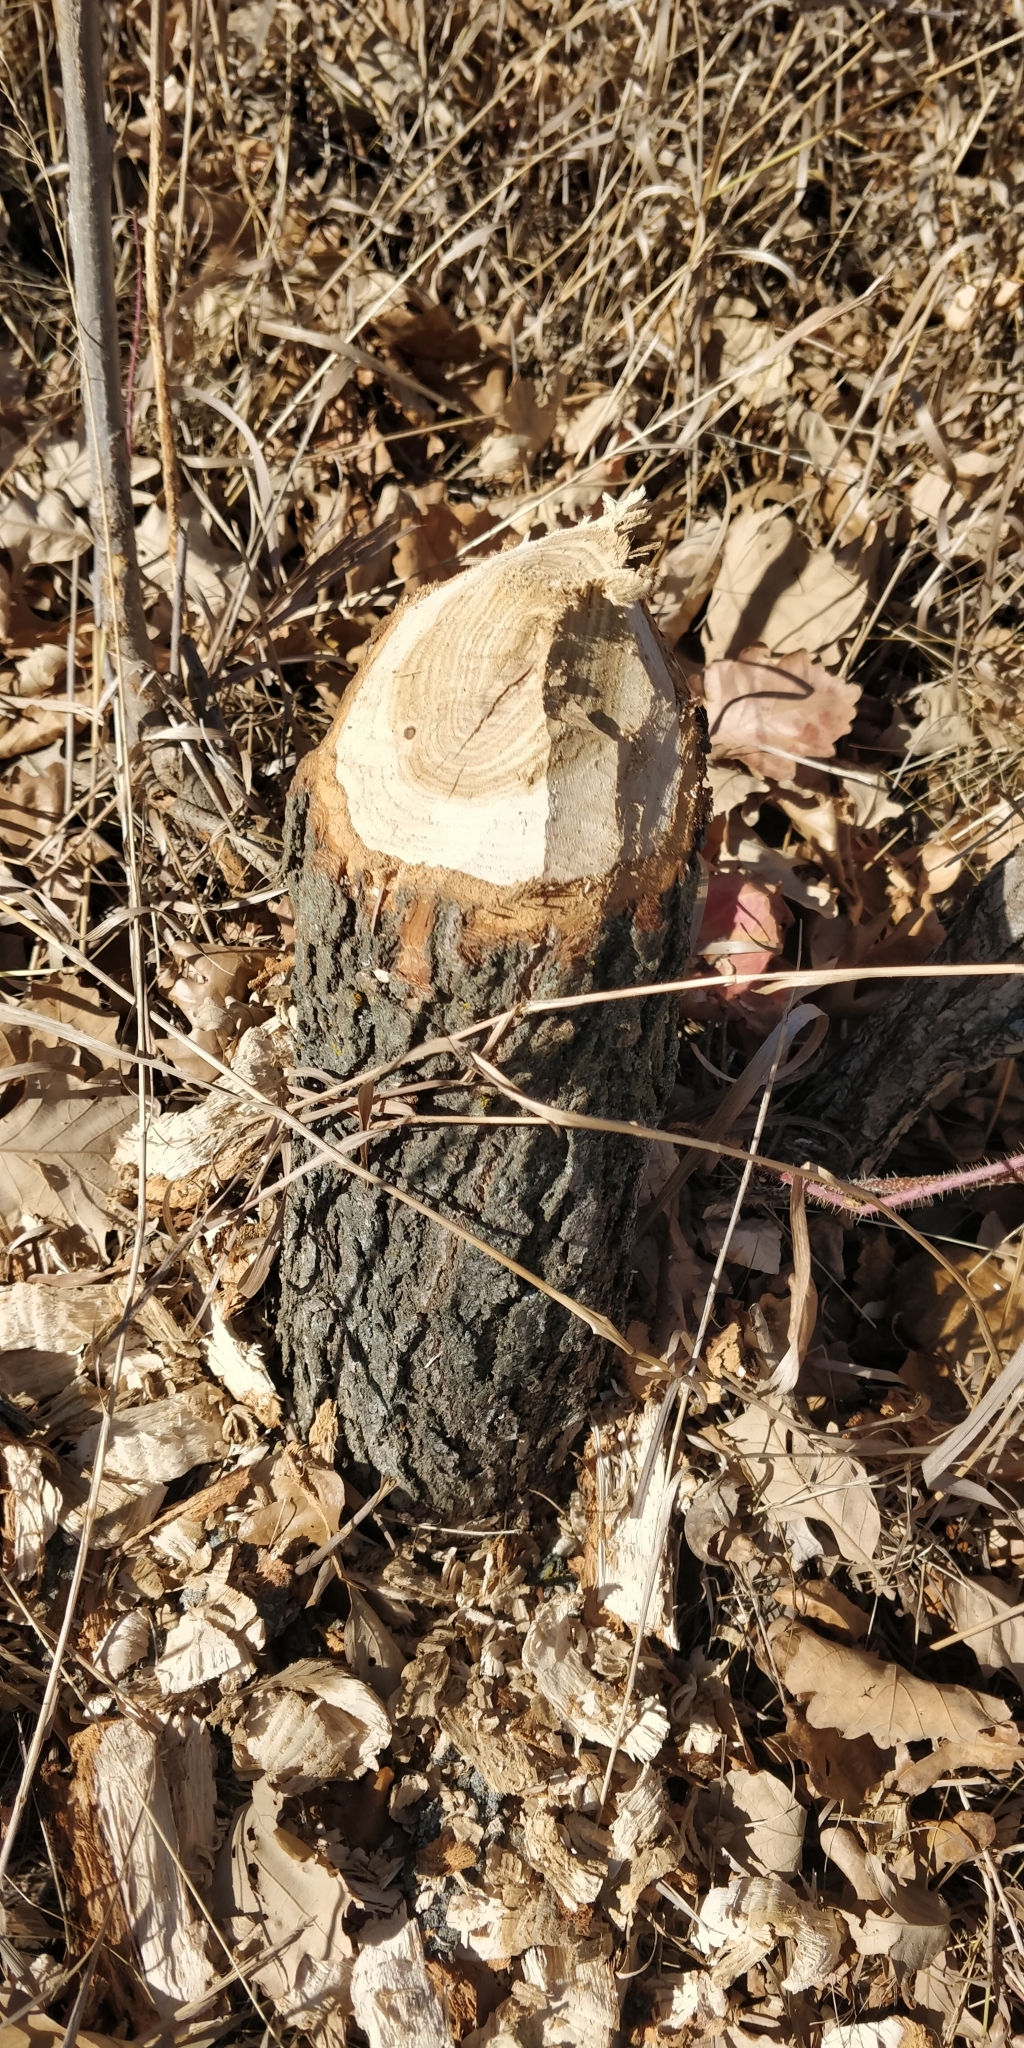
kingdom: Animalia
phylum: Chordata
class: Mammalia
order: Rodentia
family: Castoridae
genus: Castor
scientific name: Castor canadensis
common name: American beaver
